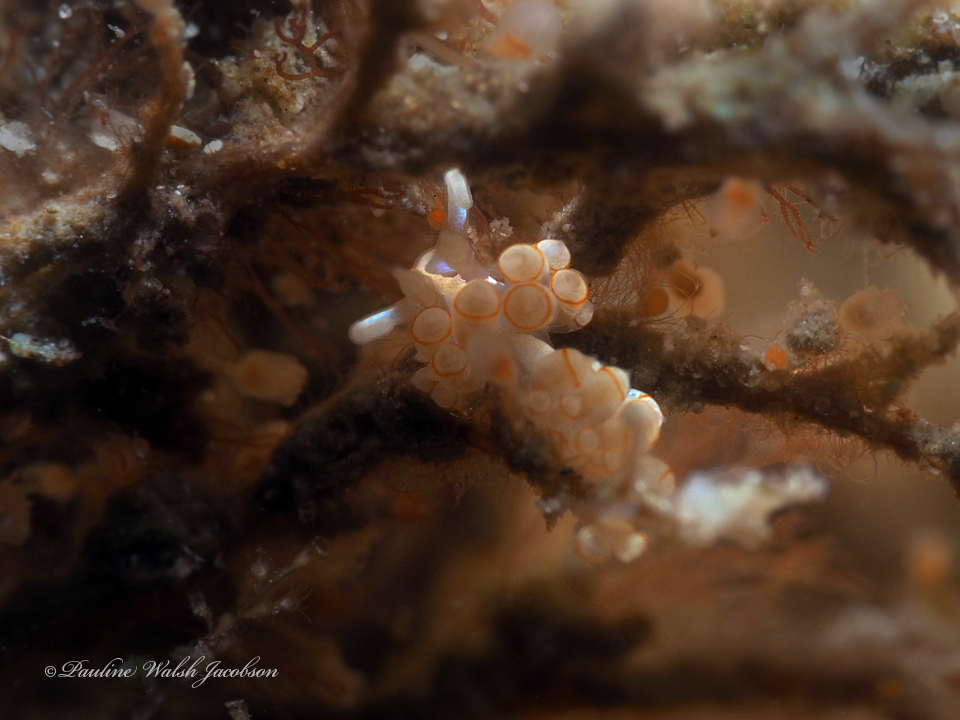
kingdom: Animalia
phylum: Mollusca
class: Gastropoda
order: Nudibranchia
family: Myrrhinidae
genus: Dondice
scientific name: Dondice freddiemercuryi
